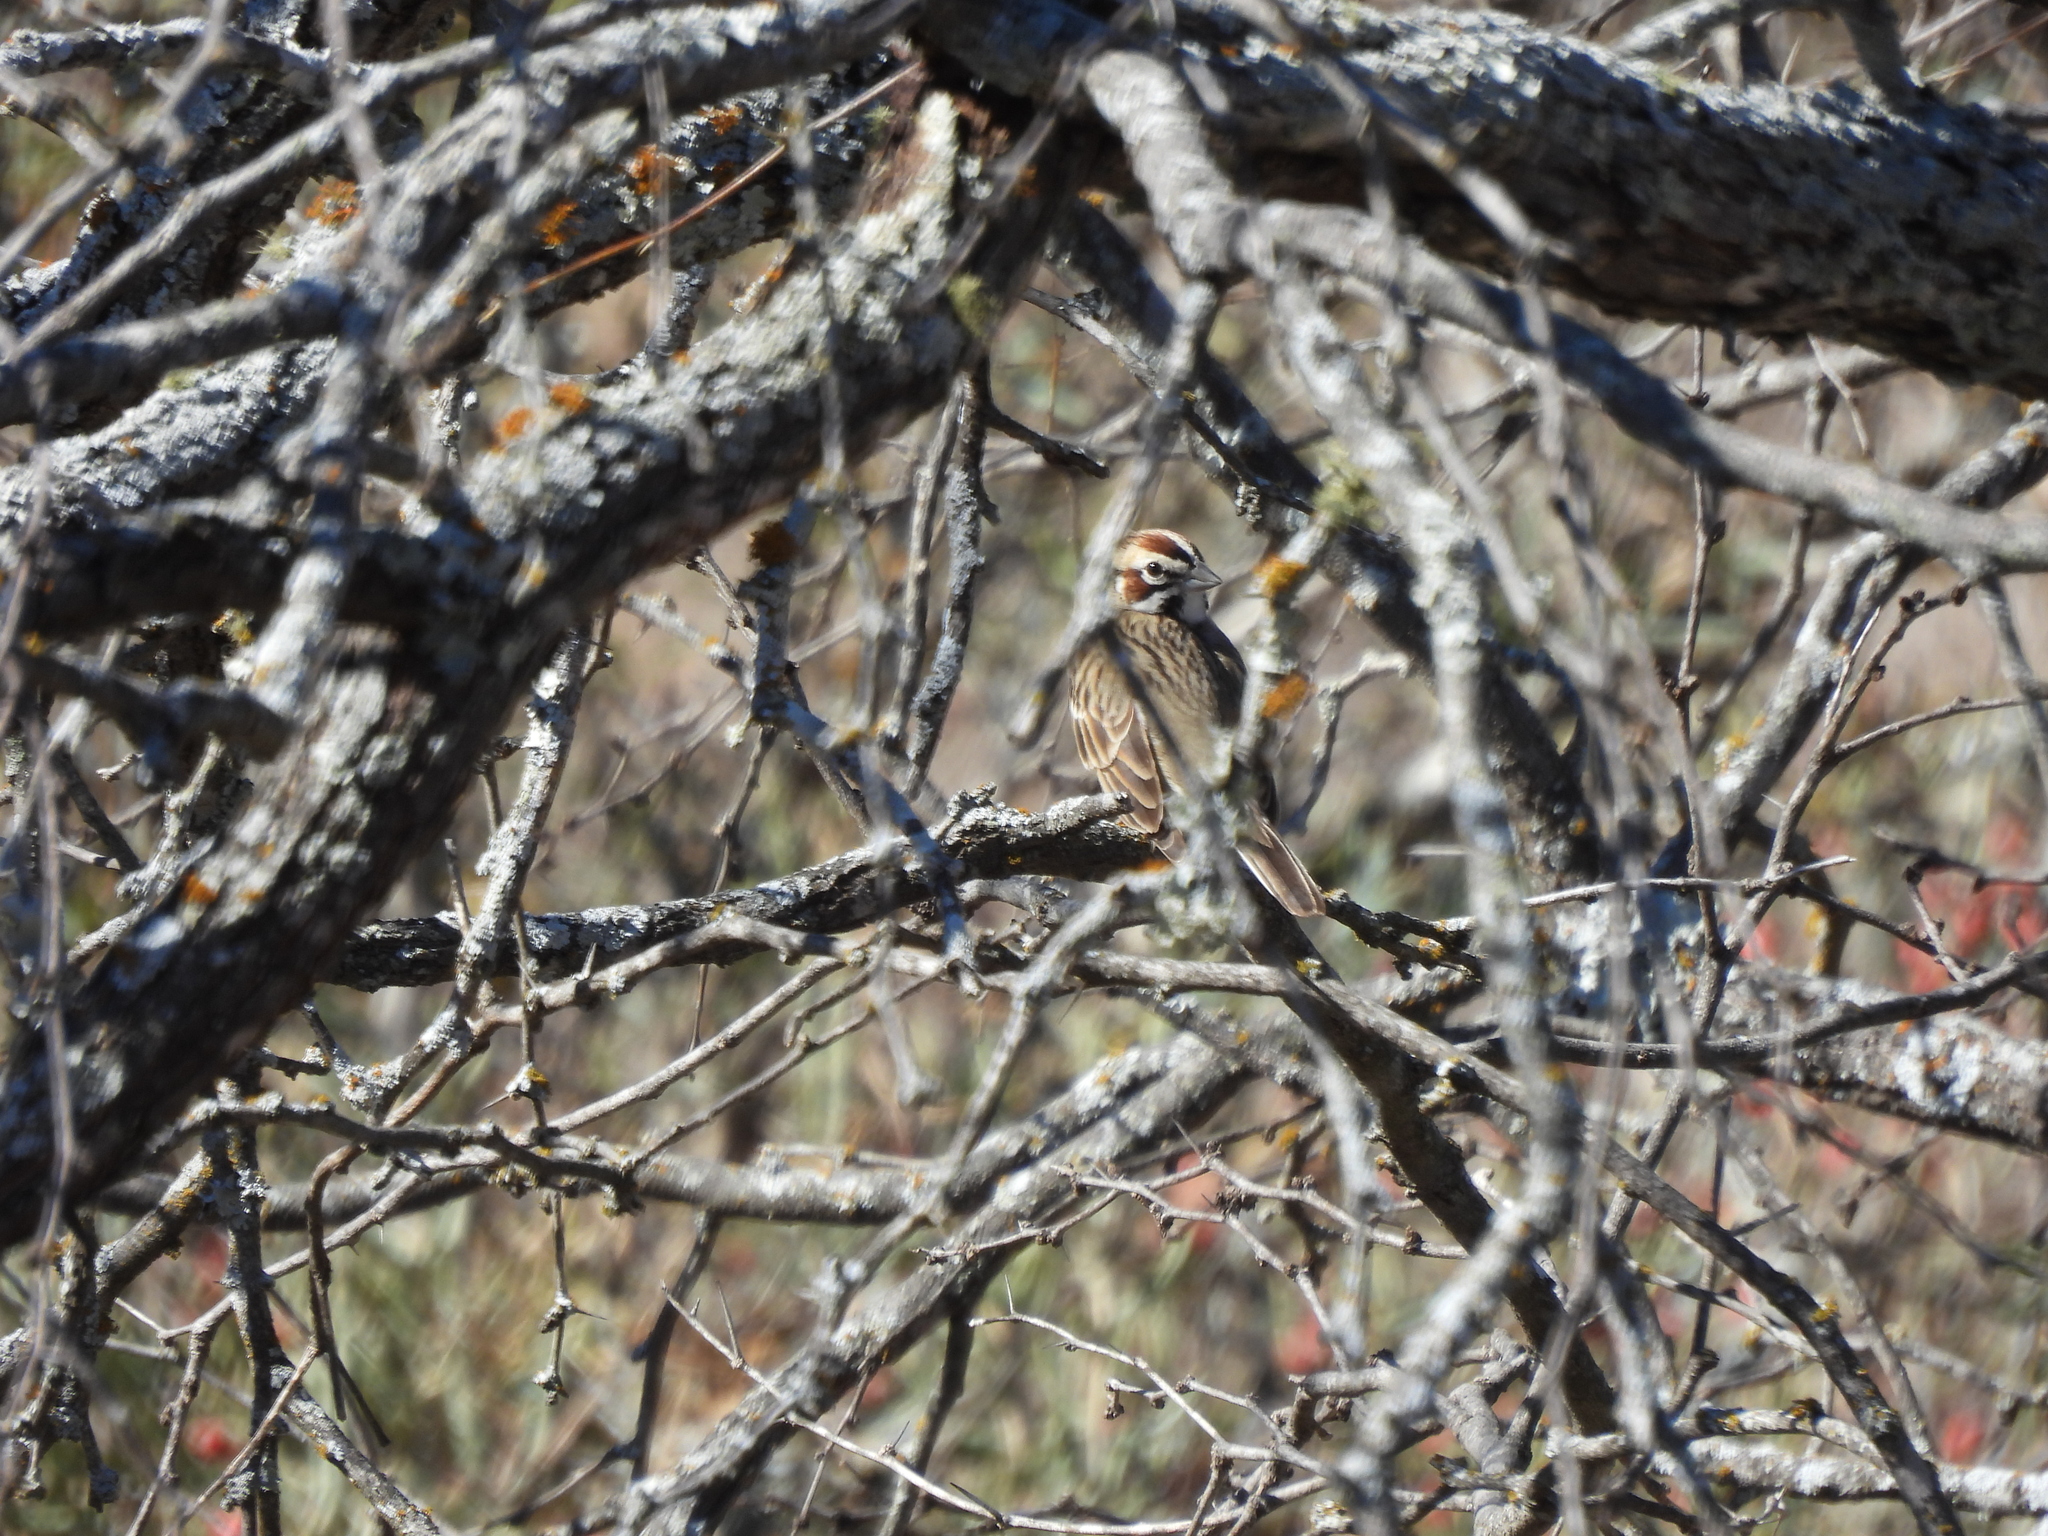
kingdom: Animalia
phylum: Chordata
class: Aves
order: Passeriformes
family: Passerellidae
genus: Chondestes
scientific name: Chondestes grammacus
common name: Lark sparrow
